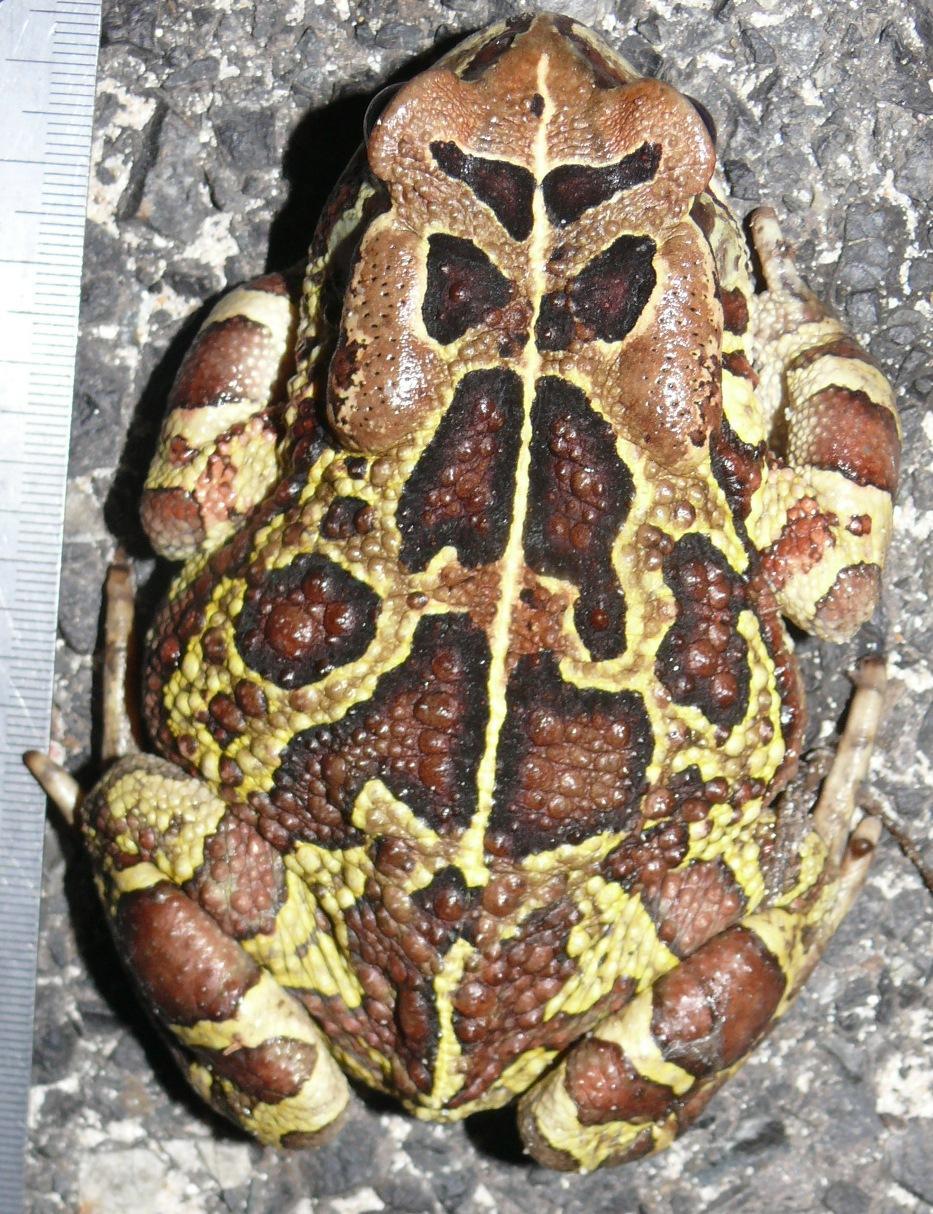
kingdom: Animalia
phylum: Chordata
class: Amphibia
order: Anura
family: Bufonidae
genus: Sclerophrys
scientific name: Sclerophrys pantherina
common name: Panther toad
